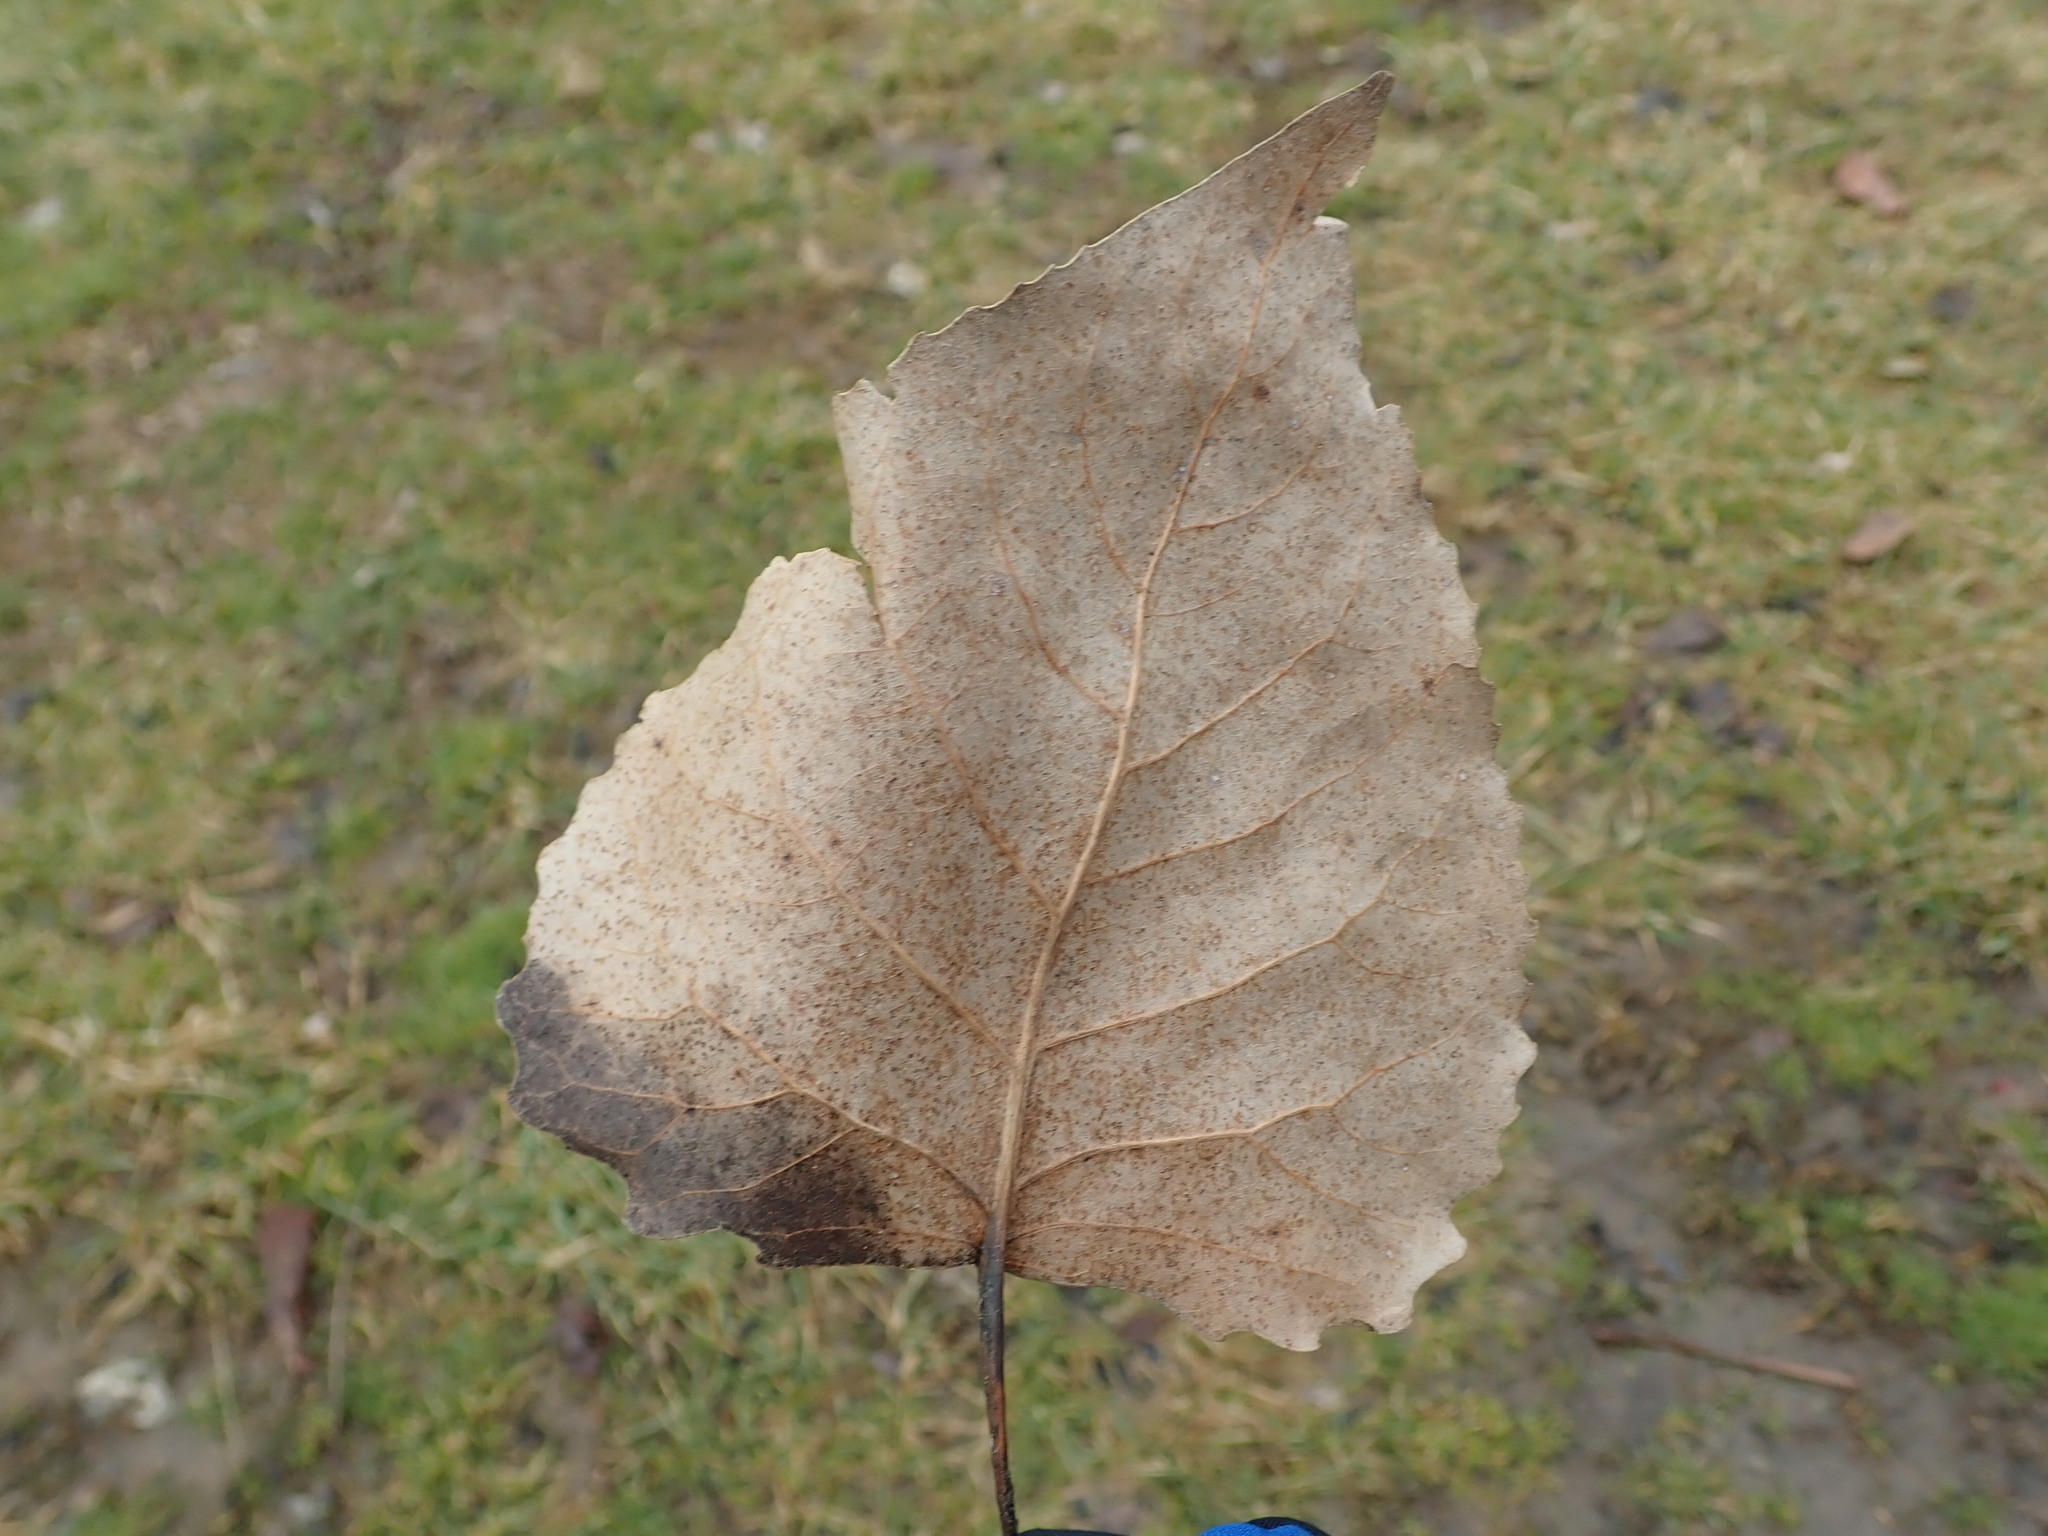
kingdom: Plantae
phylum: Tracheophyta
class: Magnoliopsida
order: Malpighiales
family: Salicaceae
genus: Populus
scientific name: Populus deltoides
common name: Eastern cottonwood
